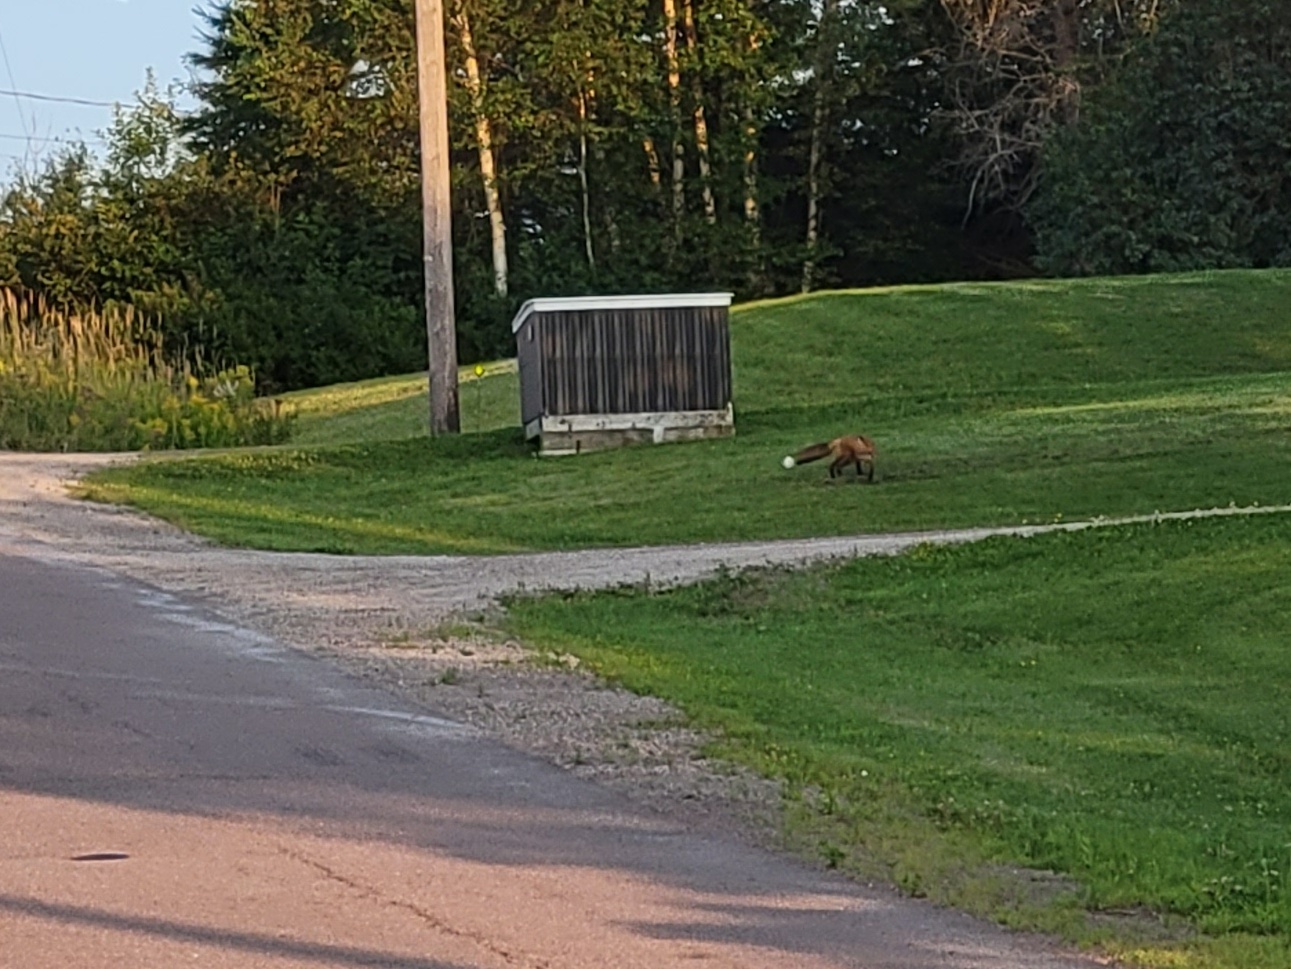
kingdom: Animalia
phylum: Chordata
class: Mammalia
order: Carnivora
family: Canidae
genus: Vulpes
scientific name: Vulpes vulpes
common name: Red fox
